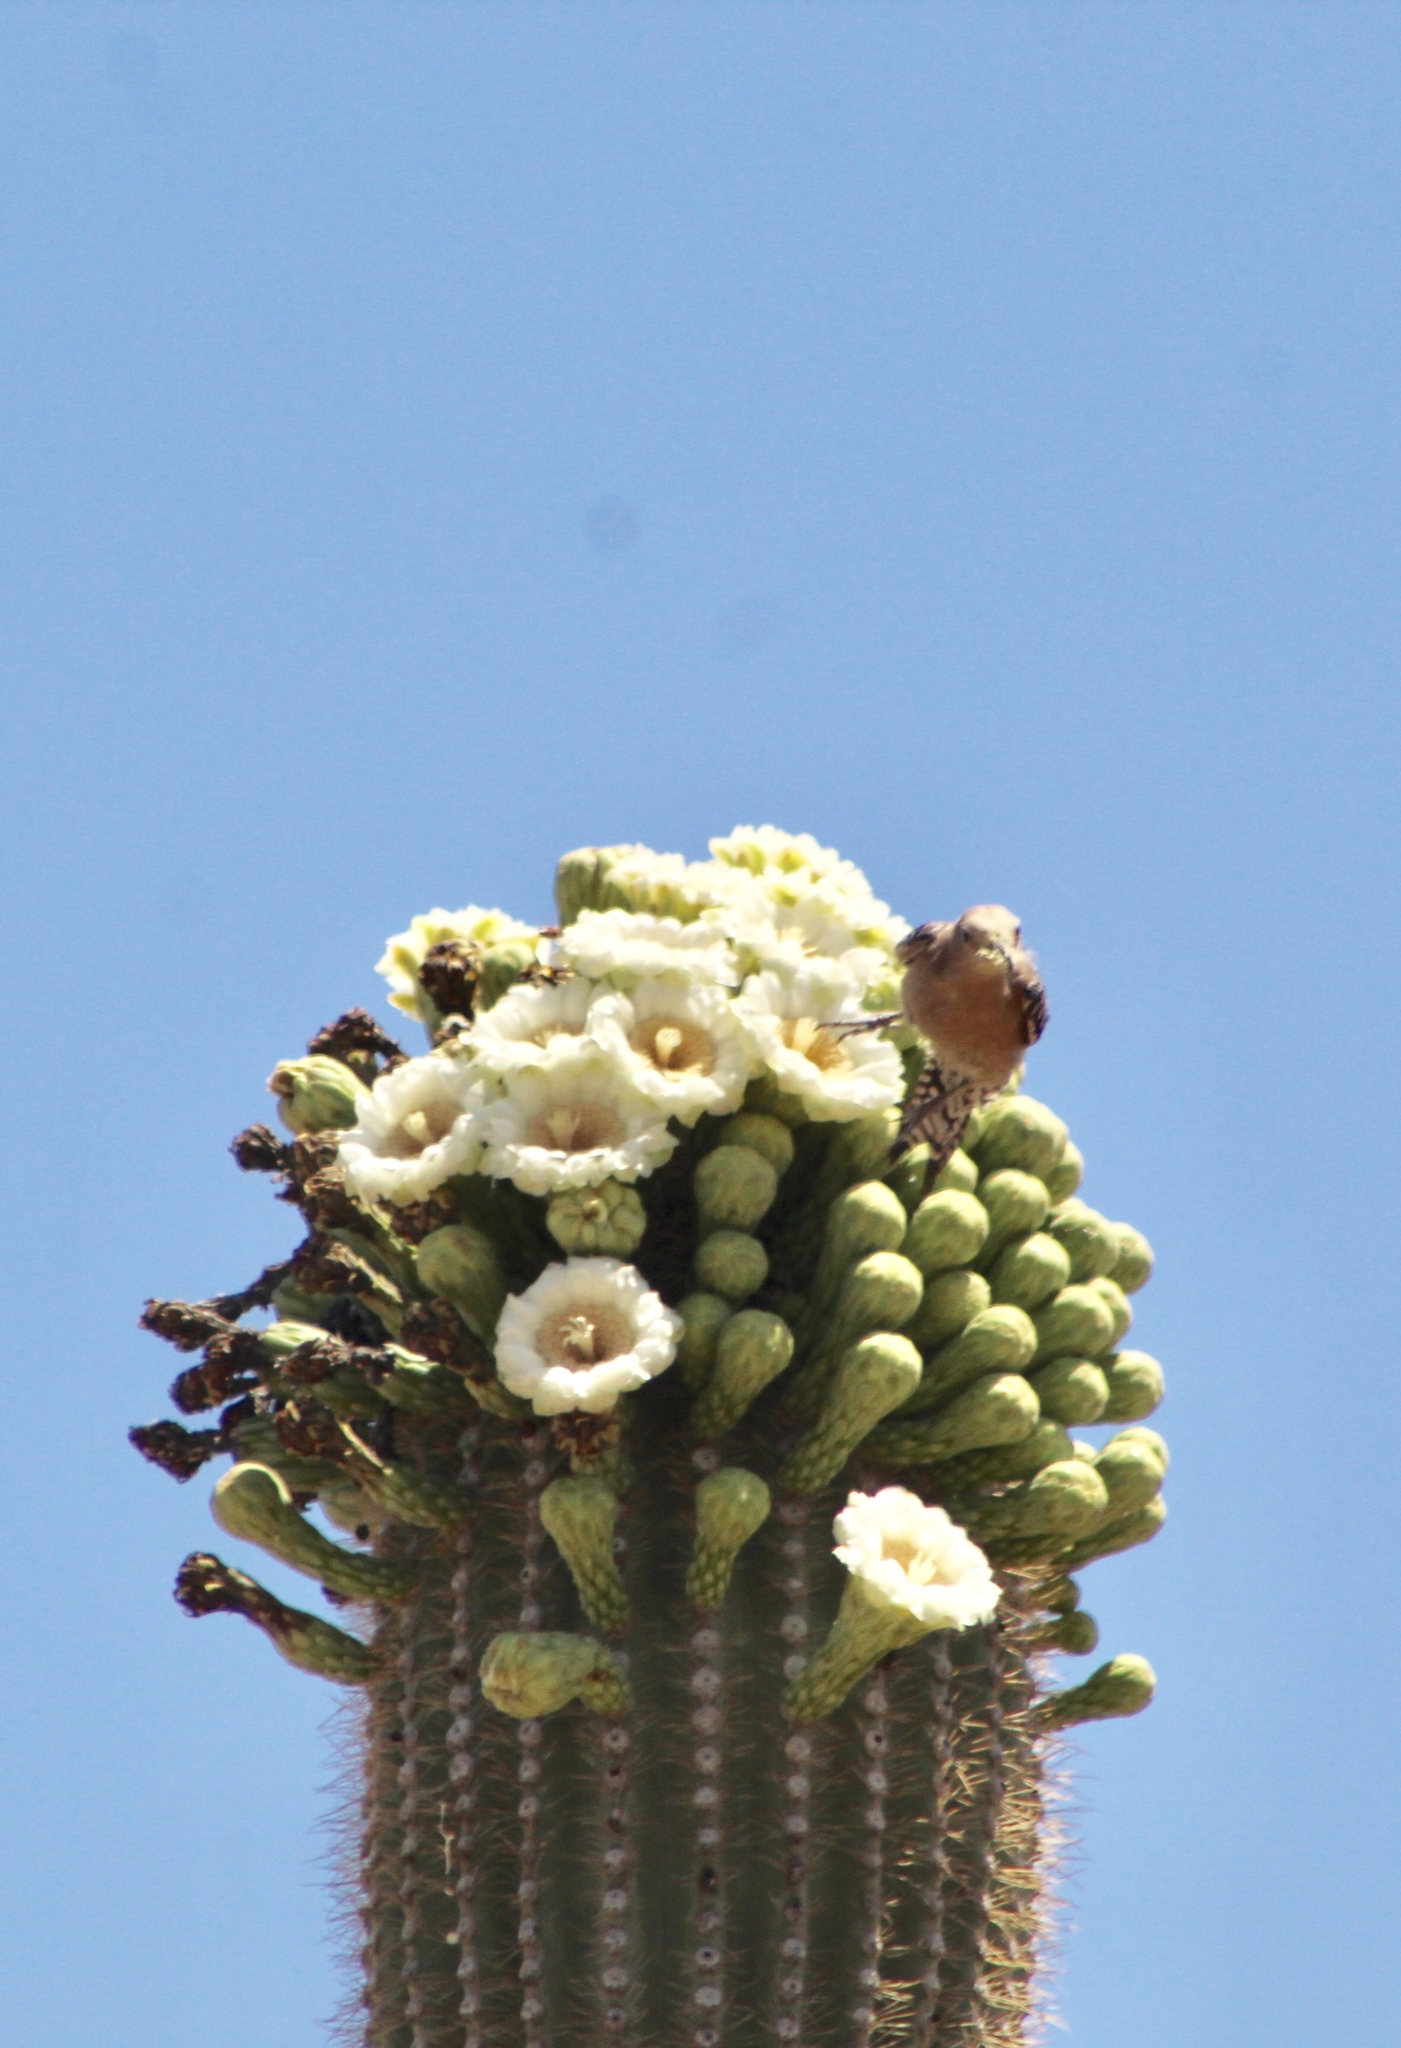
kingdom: Animalia
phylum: Chordata
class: Aves
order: Piciformes
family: Picidae
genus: Melanerpes
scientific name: Melanerpes uropygialis
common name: Gila woodpecker
